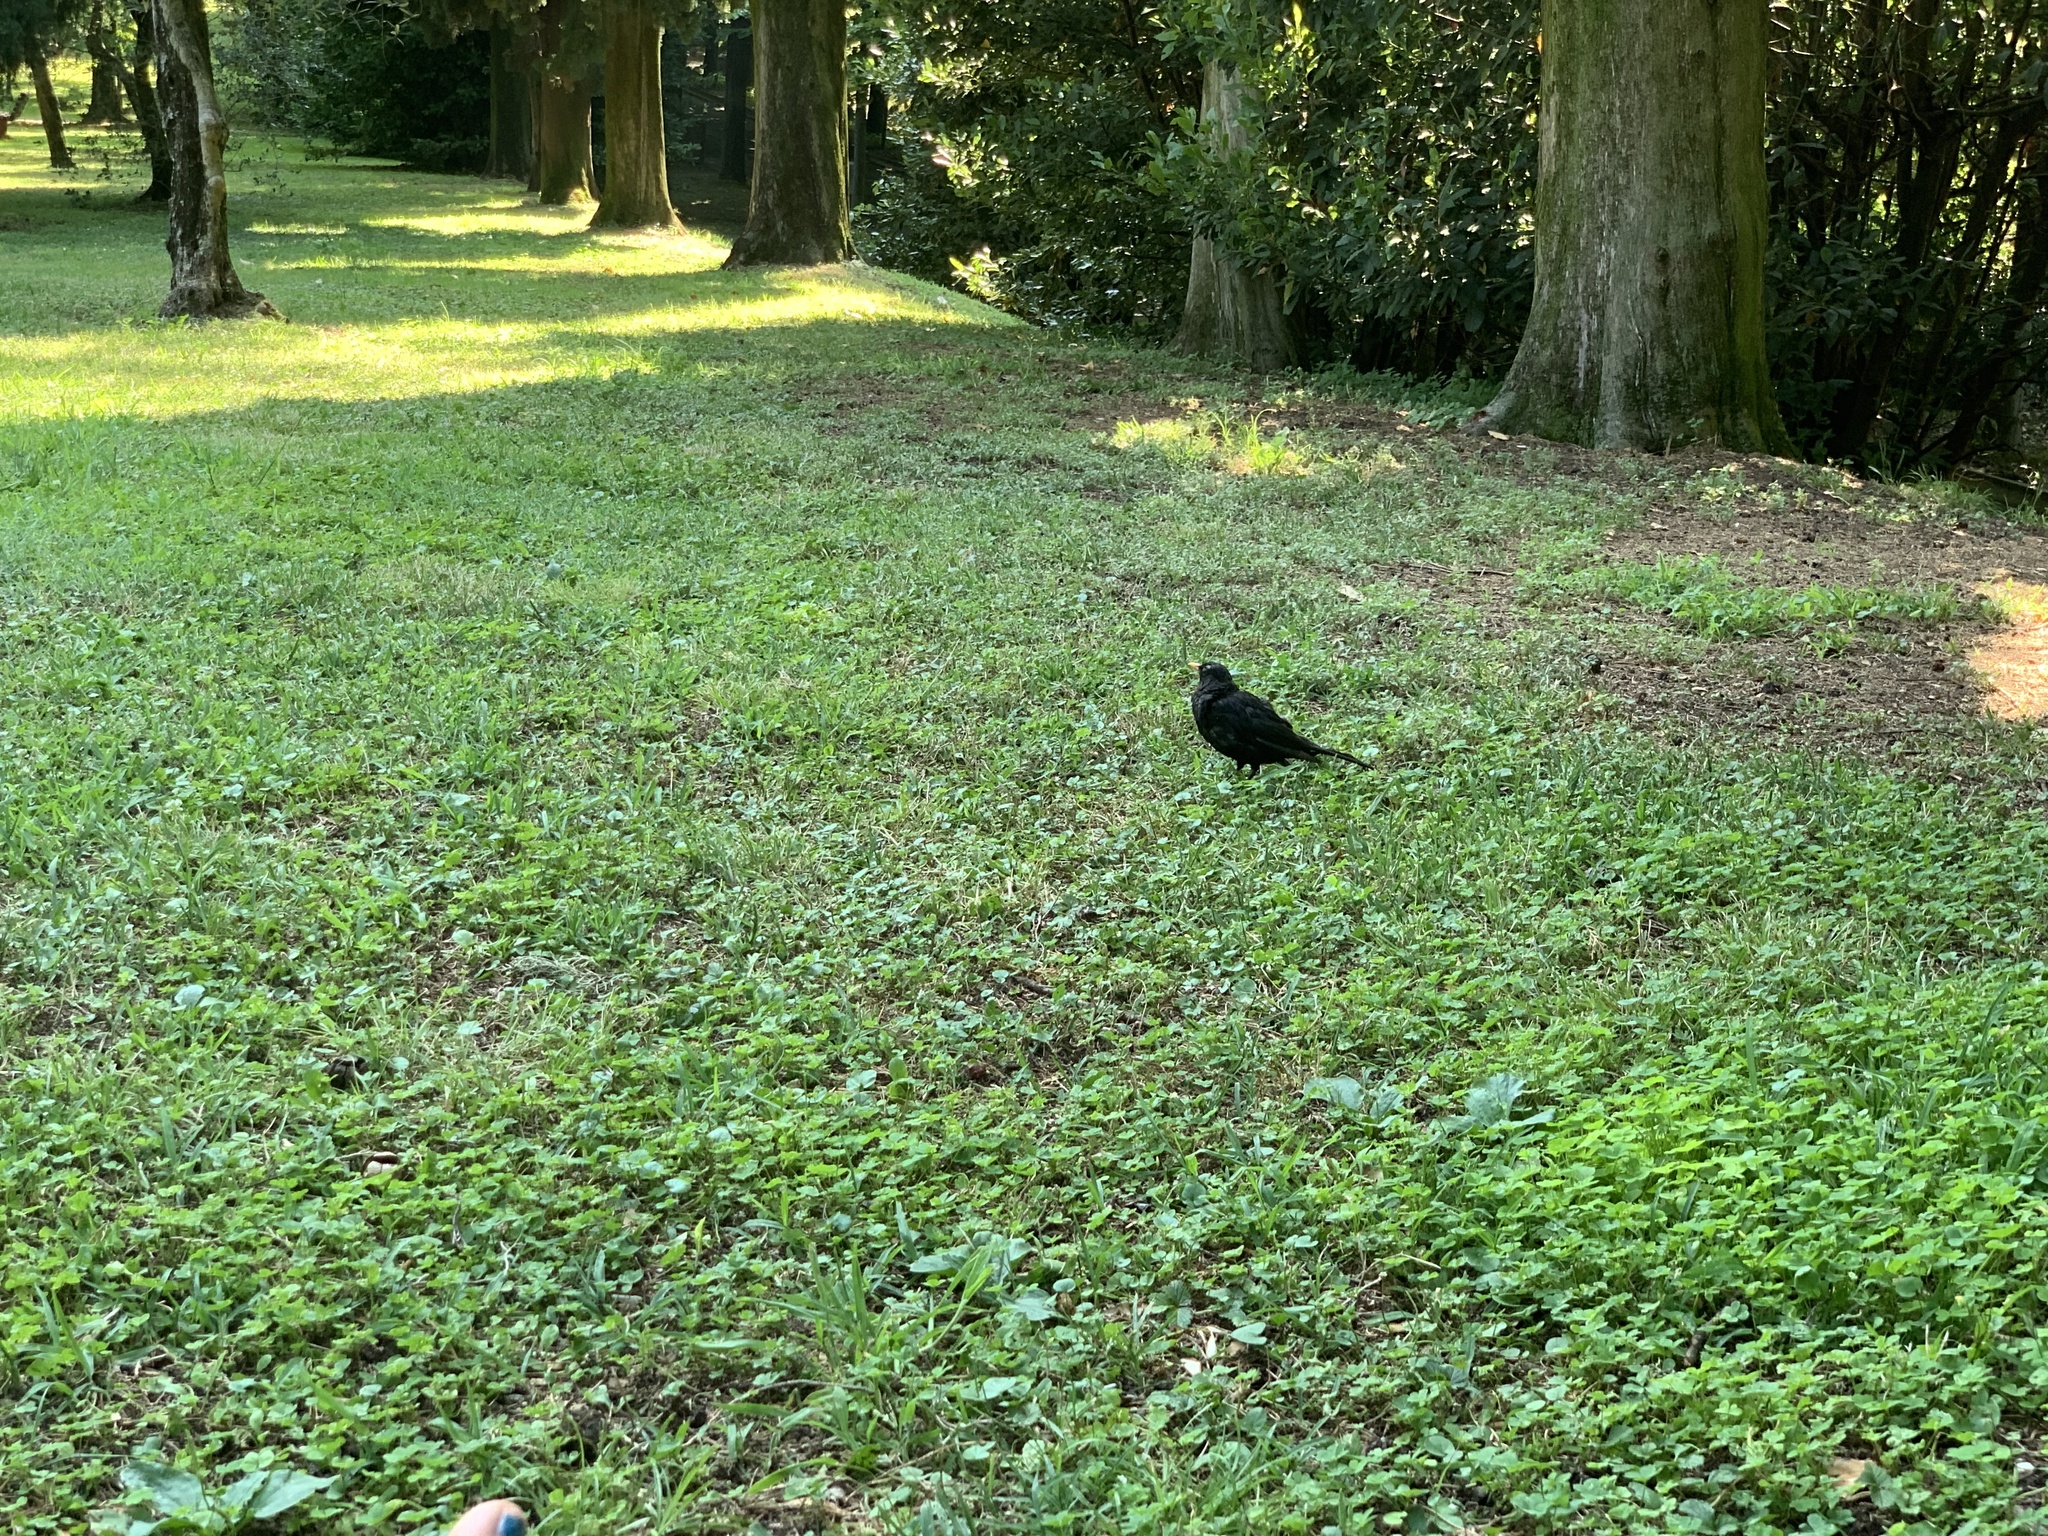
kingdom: Animalia
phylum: Chordata
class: Aves
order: Passeriformes
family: Turdidae
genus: Turdus
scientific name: Turdus merula
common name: Common blackbird
